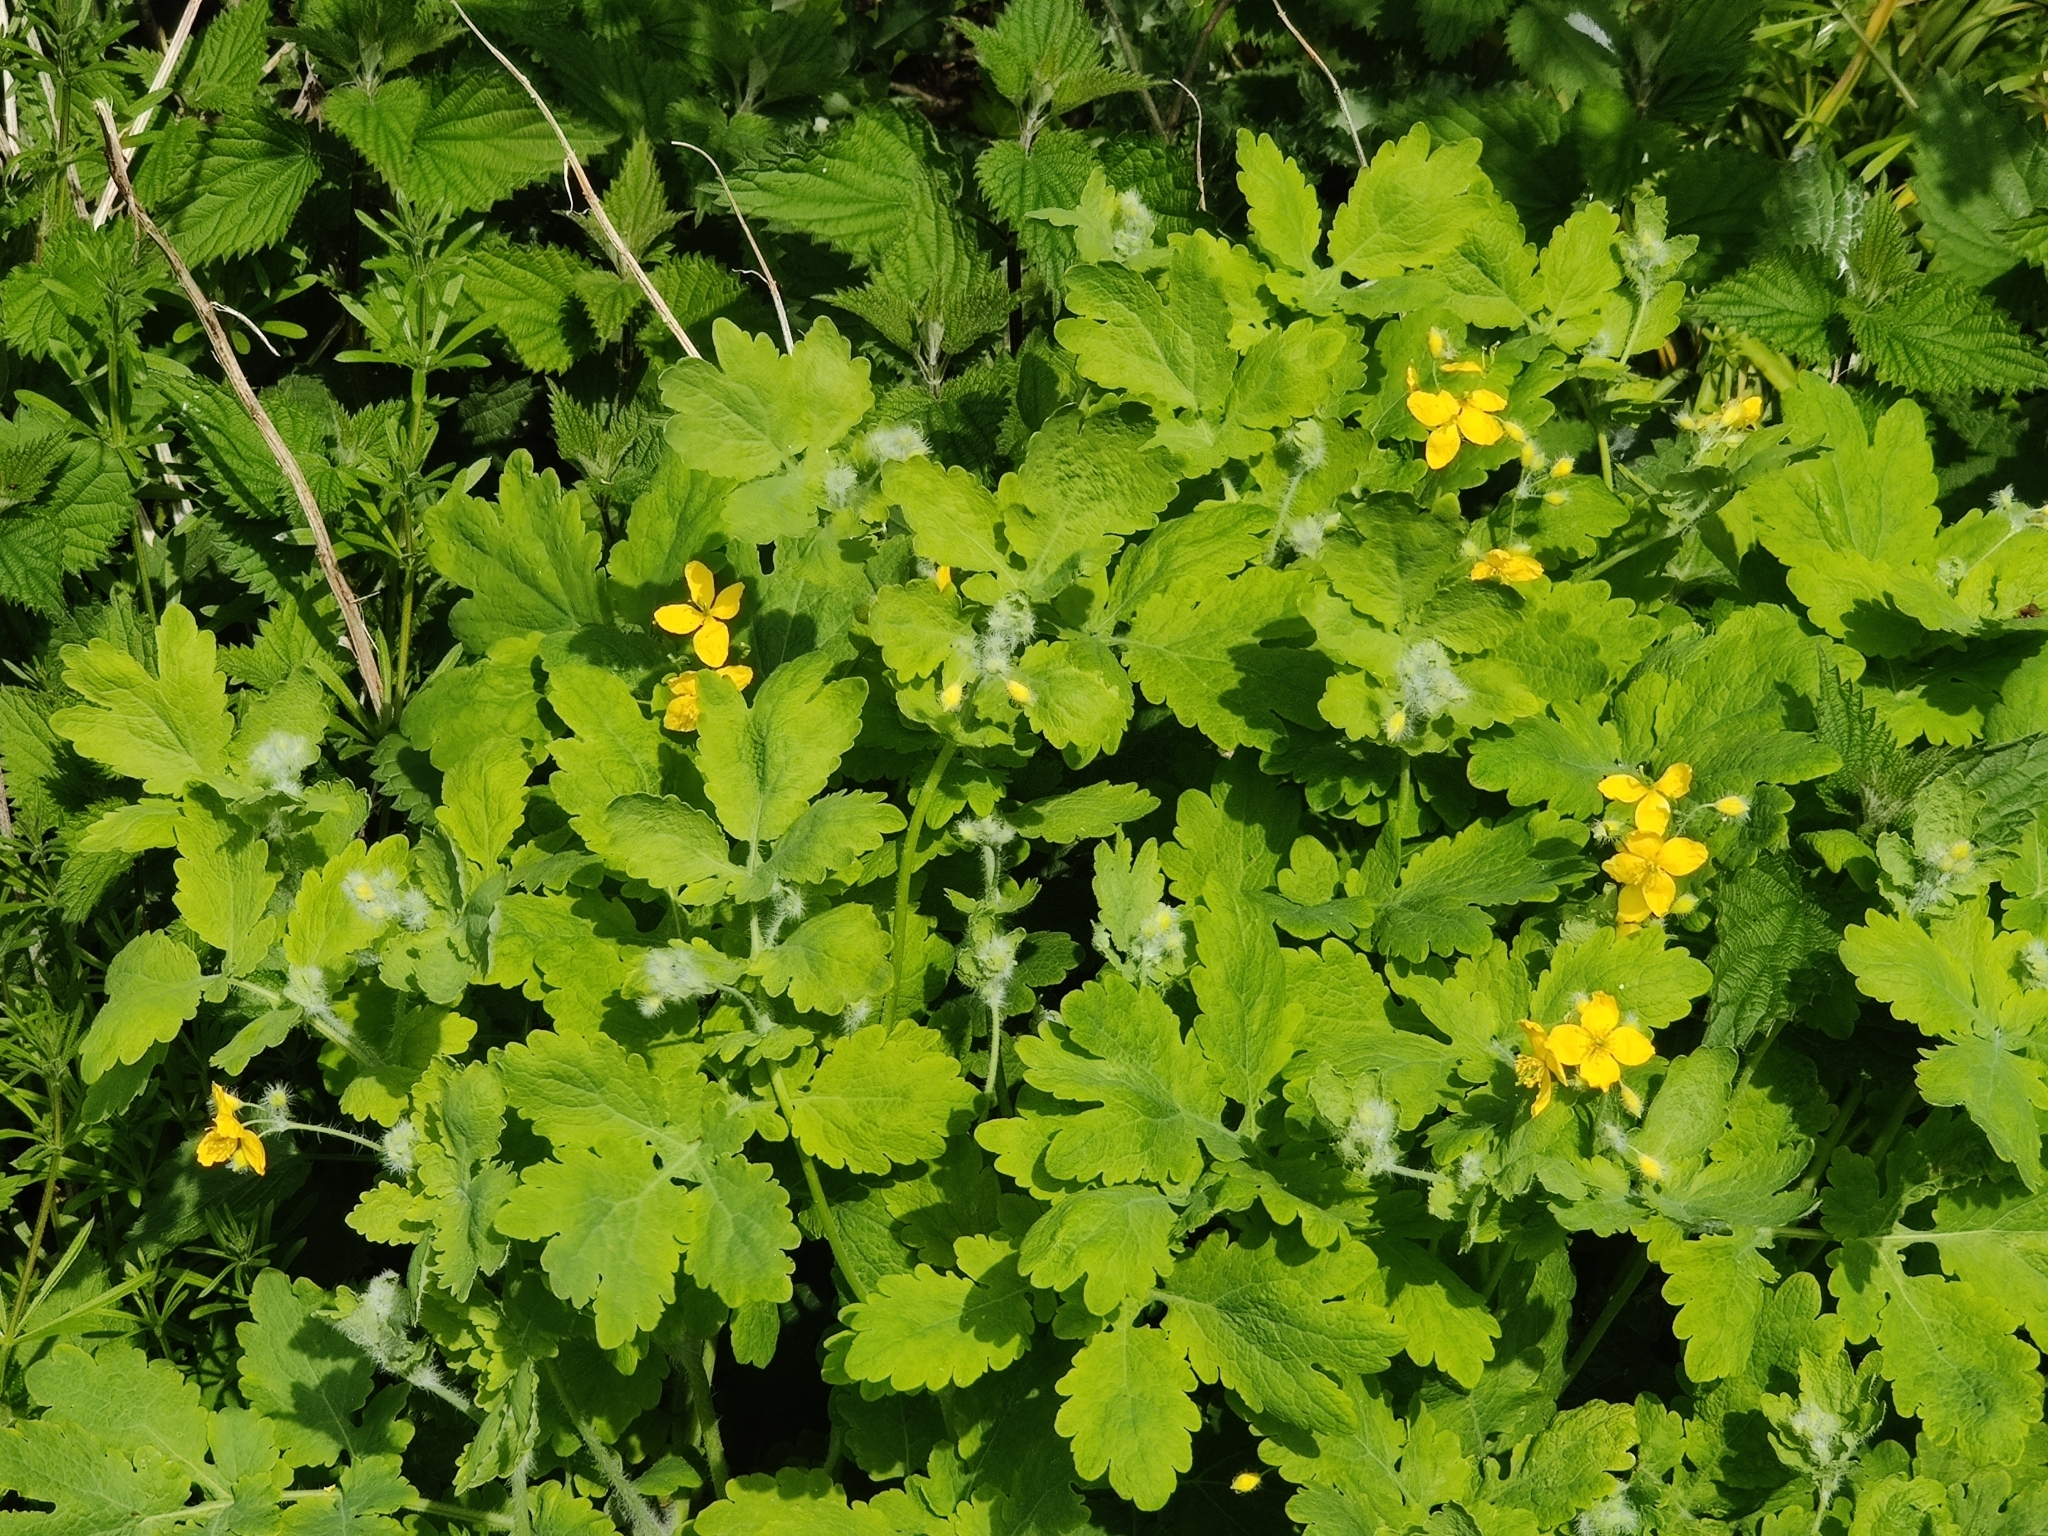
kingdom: Plantae
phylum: Tracheophyta
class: Magnoliopsida
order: Ranunculales
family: Papaveraceae
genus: Chelidonium
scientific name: Chelidonium majus
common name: Greater celandine
